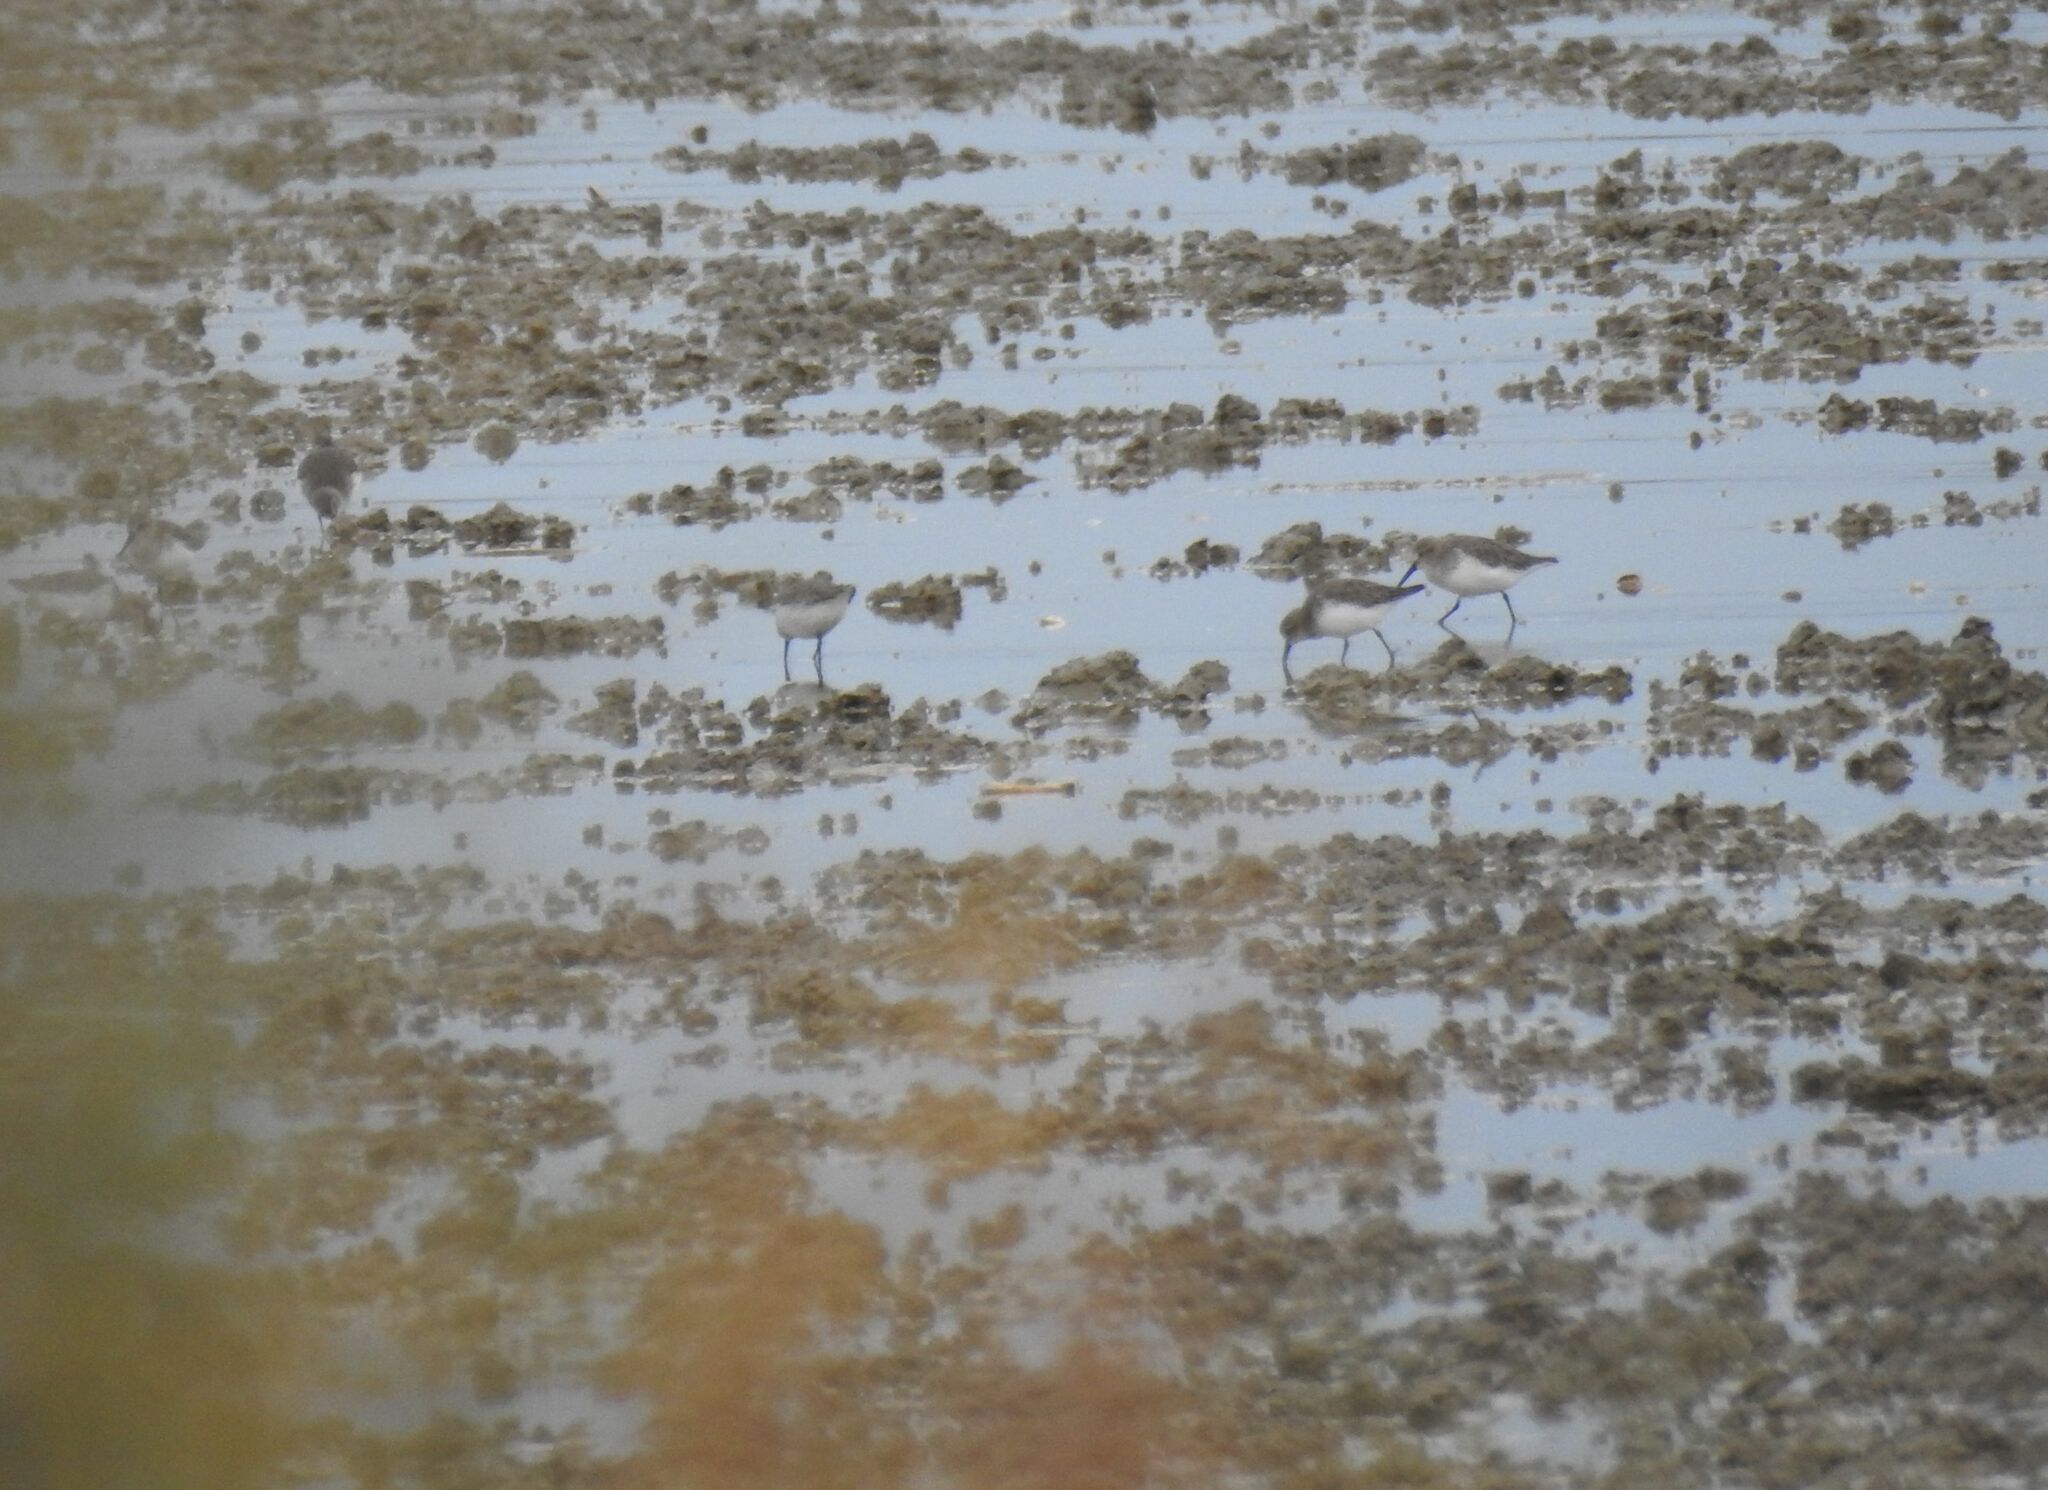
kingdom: Animalia
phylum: Chordata
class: Aves
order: Charadriiformes
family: Scolopacidae
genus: Calidris
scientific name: Calidris alpina
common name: Dunlin
